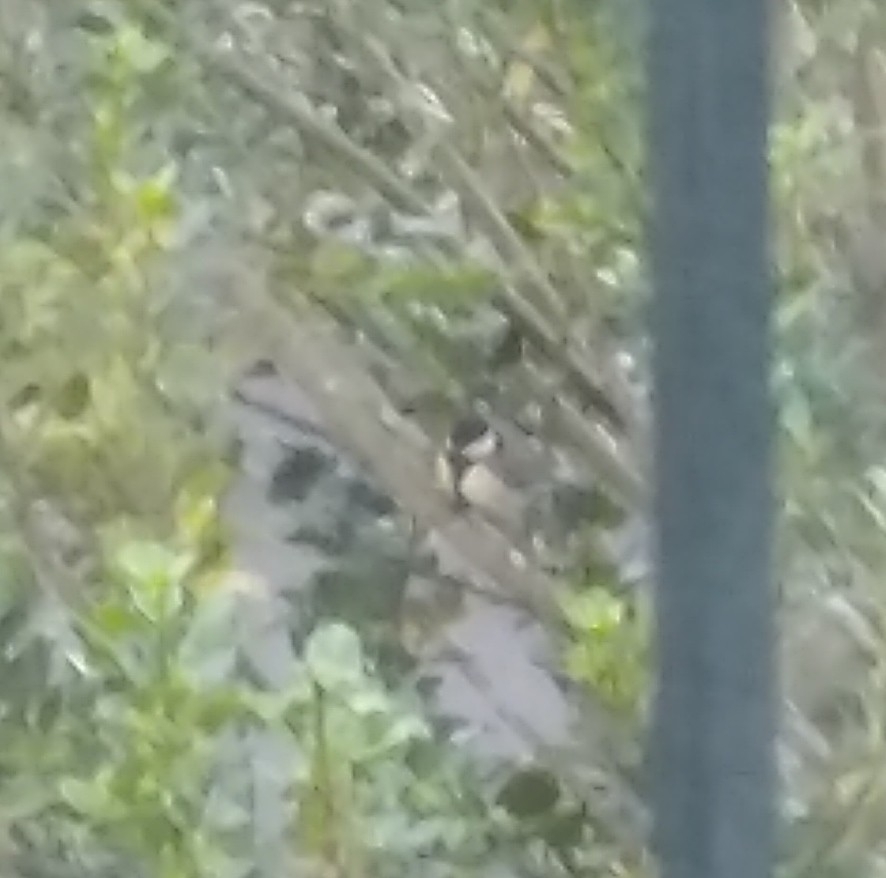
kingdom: Animalia
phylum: Chordata
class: Aves
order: Passeriformes
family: Paridae
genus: Parus
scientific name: Parus major
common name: Great tit
